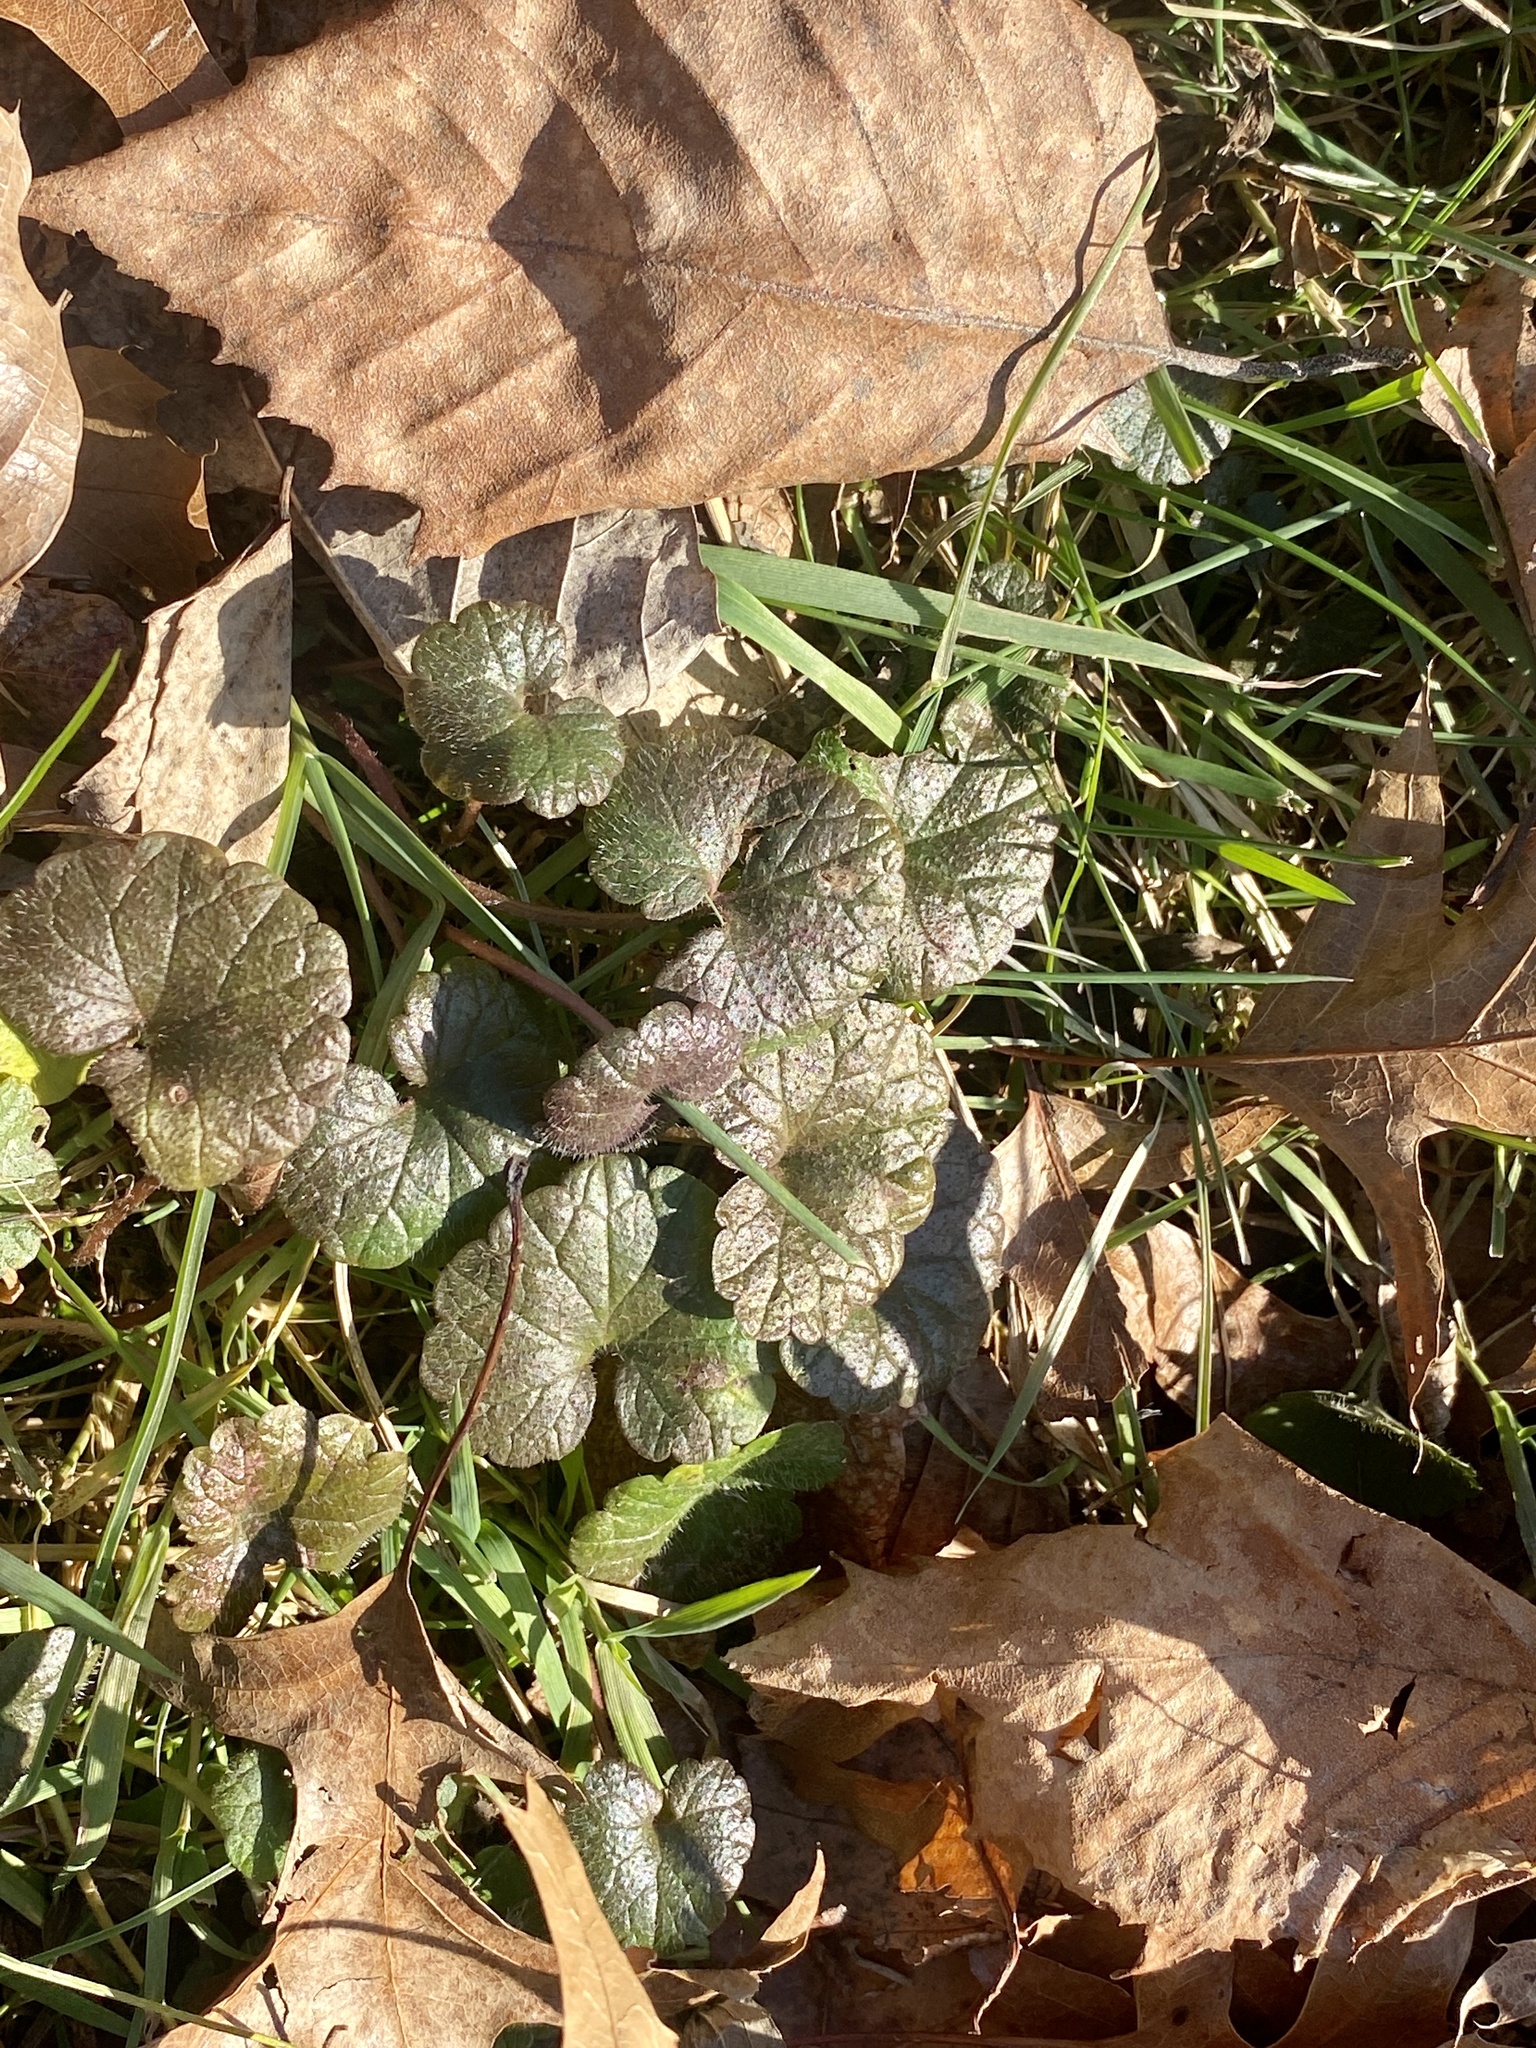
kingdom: Plantae
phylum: Tracheophyta
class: Magnoliopsida
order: Lamiales
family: Lamiaceae
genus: Glechoma
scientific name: Glechoma hederacea
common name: Ground ivy
